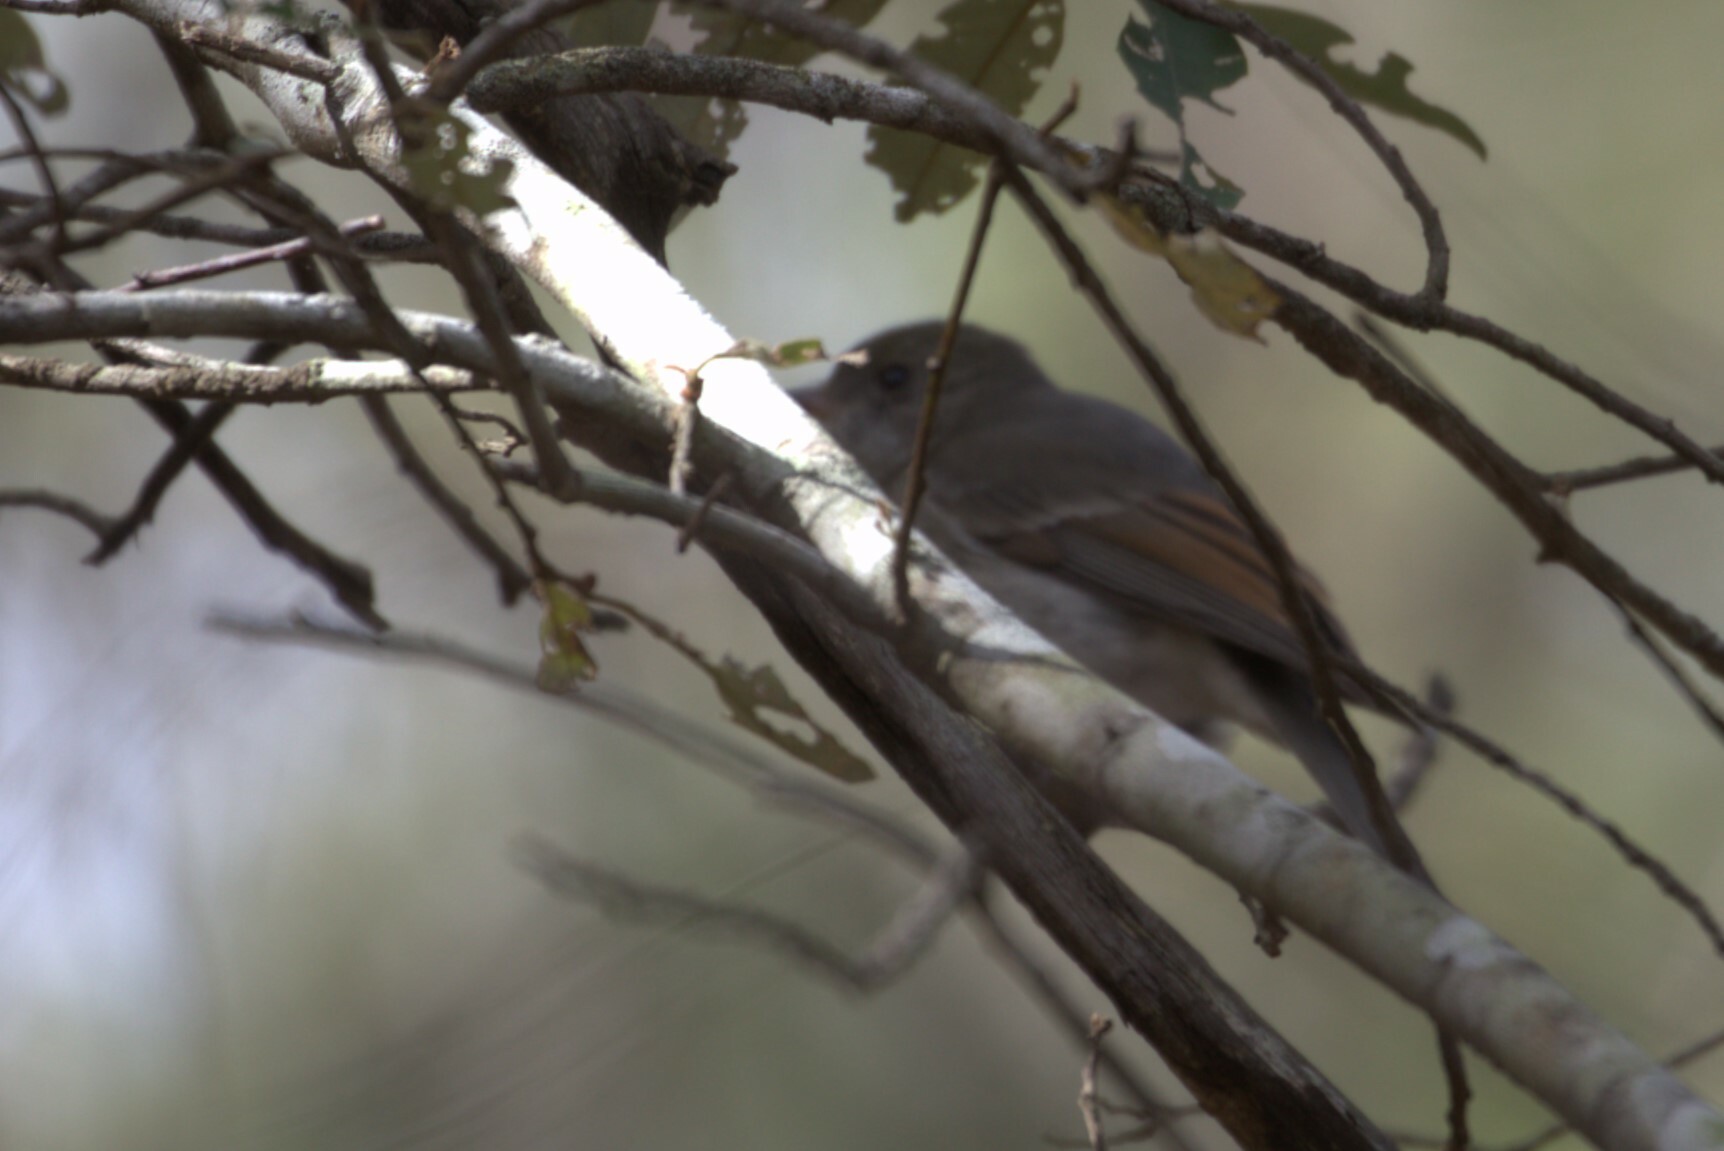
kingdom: Animalia
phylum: Chordata
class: Aves
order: Passeriformes
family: Pachycephalidae
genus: Pachycephala
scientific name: Pachycephala pectoralis
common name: Australian golden whistler
